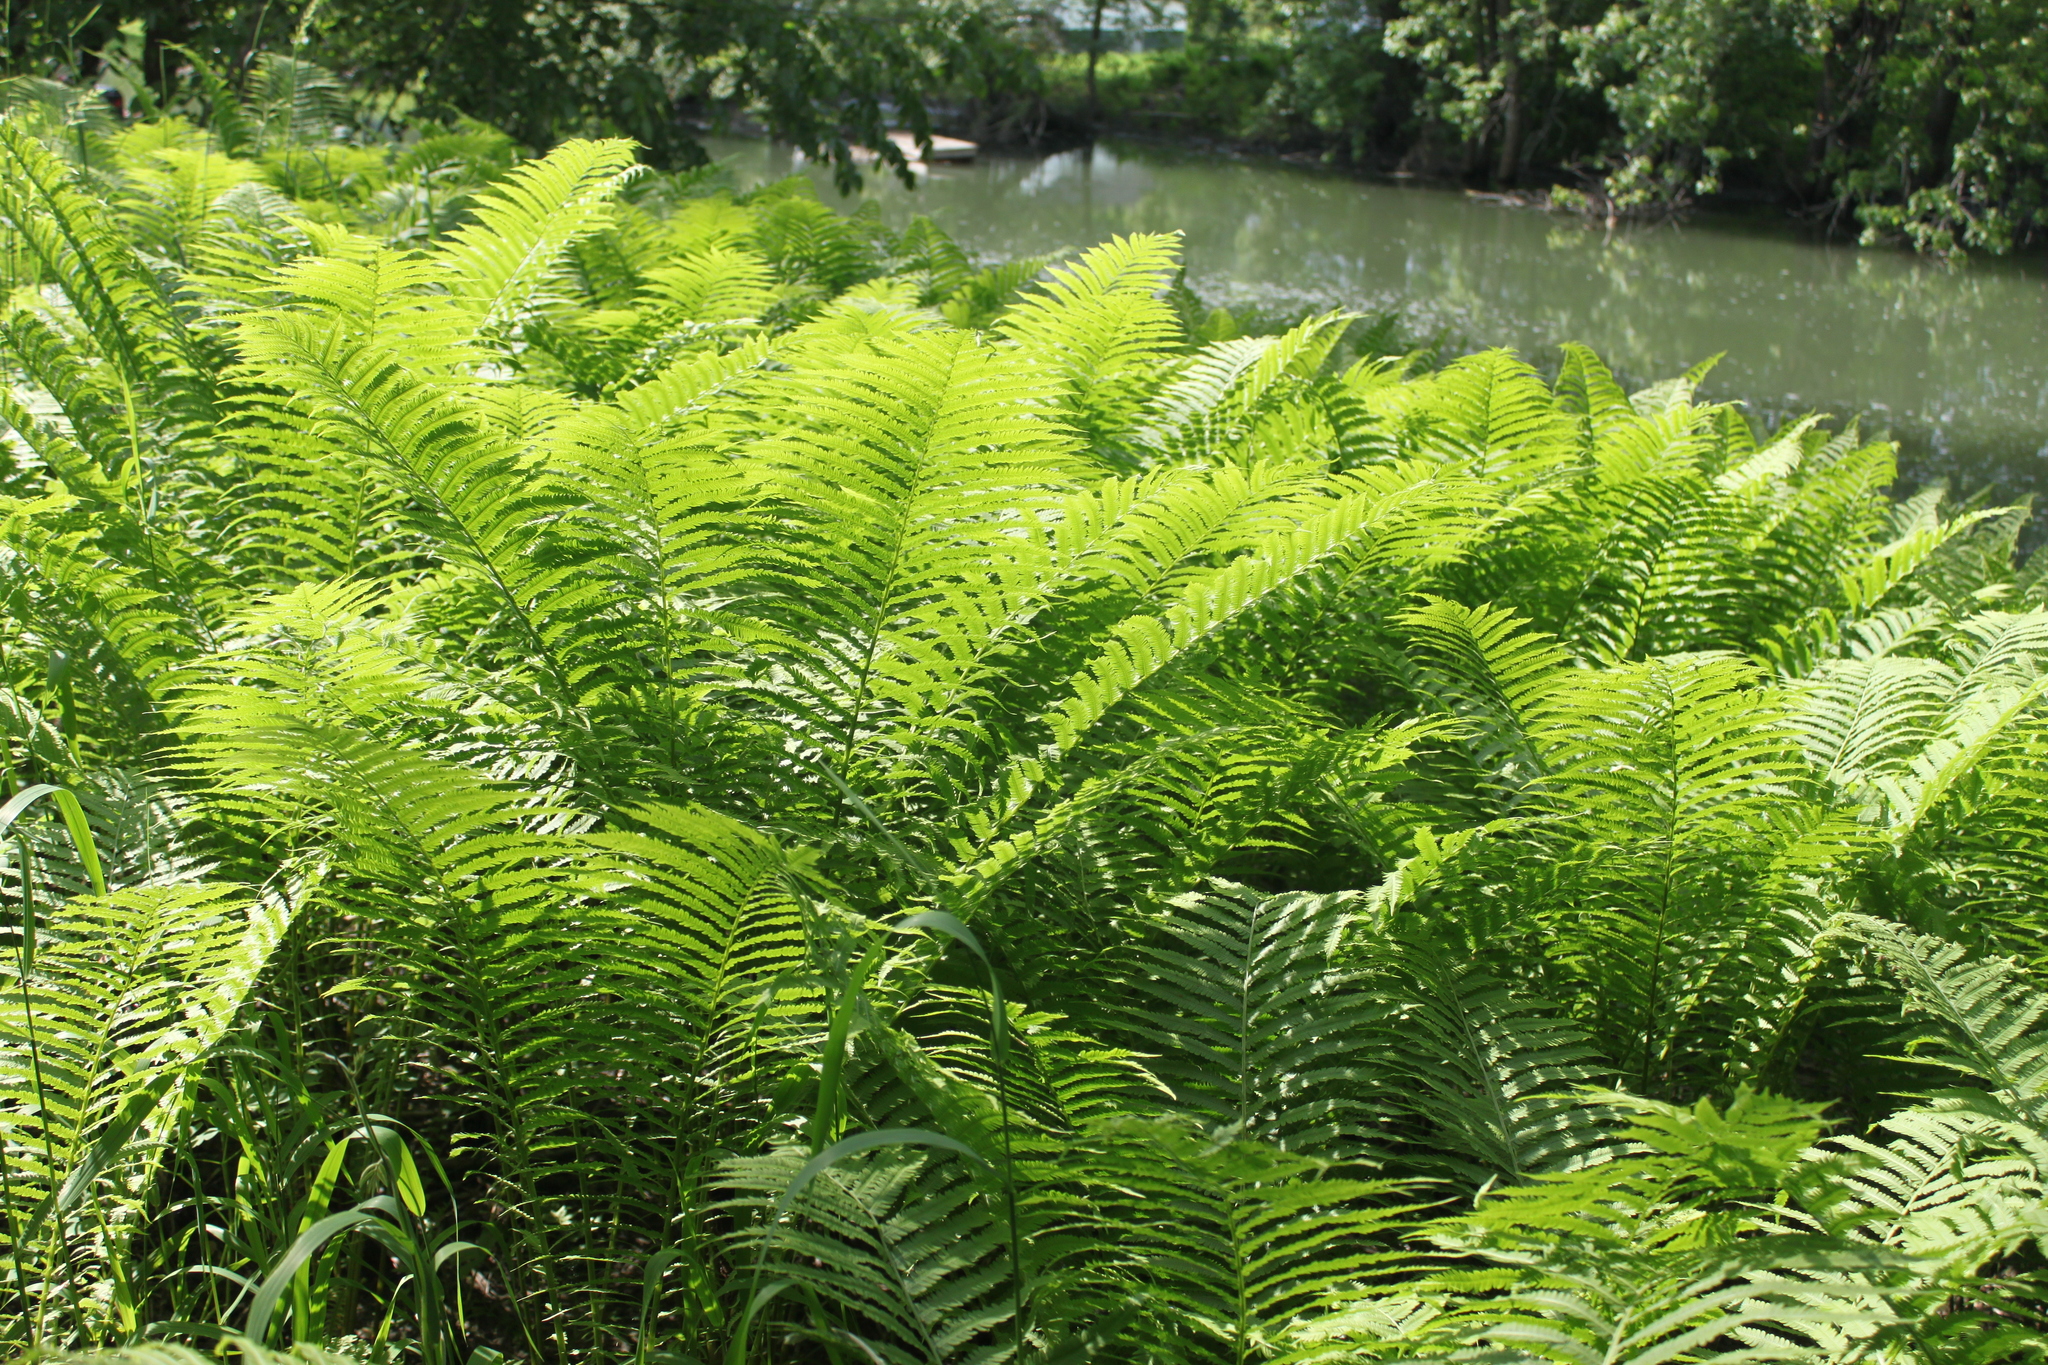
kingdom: Plantae
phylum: Tracheophyta
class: Polypodiopsida
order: Polypodiales
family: Onocleaceae
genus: Matteuccia
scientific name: Matteuccia pensylvanica
